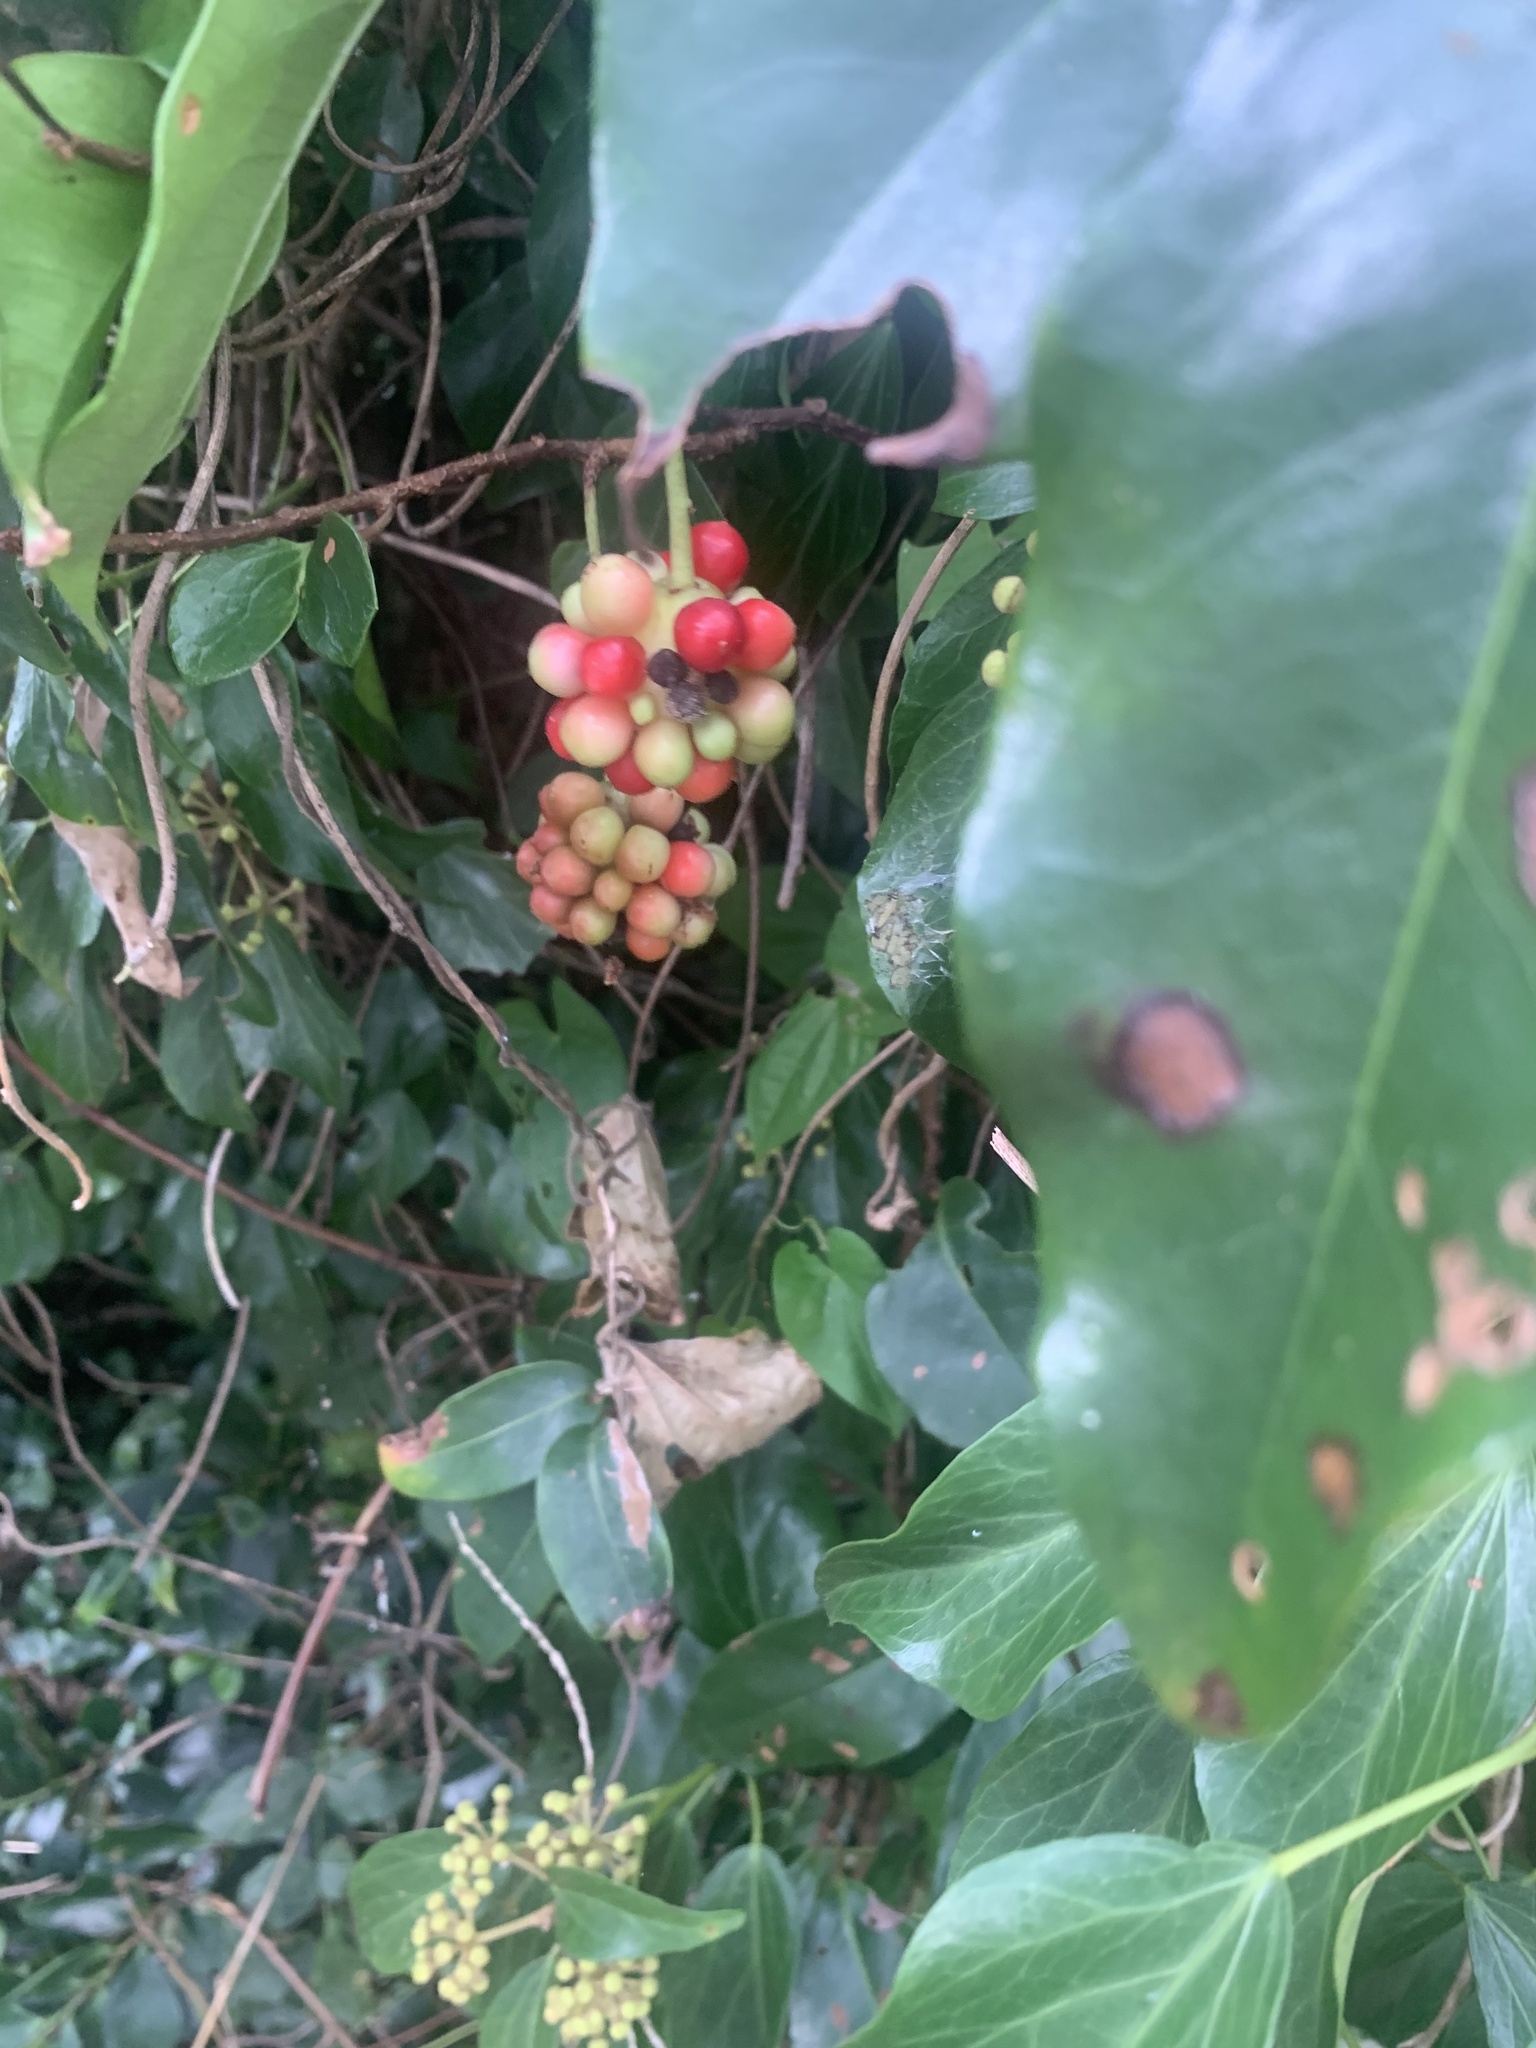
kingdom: Plantae
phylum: Tracheophyta
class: Magnoliopsida
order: Austrobaileyales
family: Schisandraceae
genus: Kadsura
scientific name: Kadsura japonica
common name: Japanese kadsura
